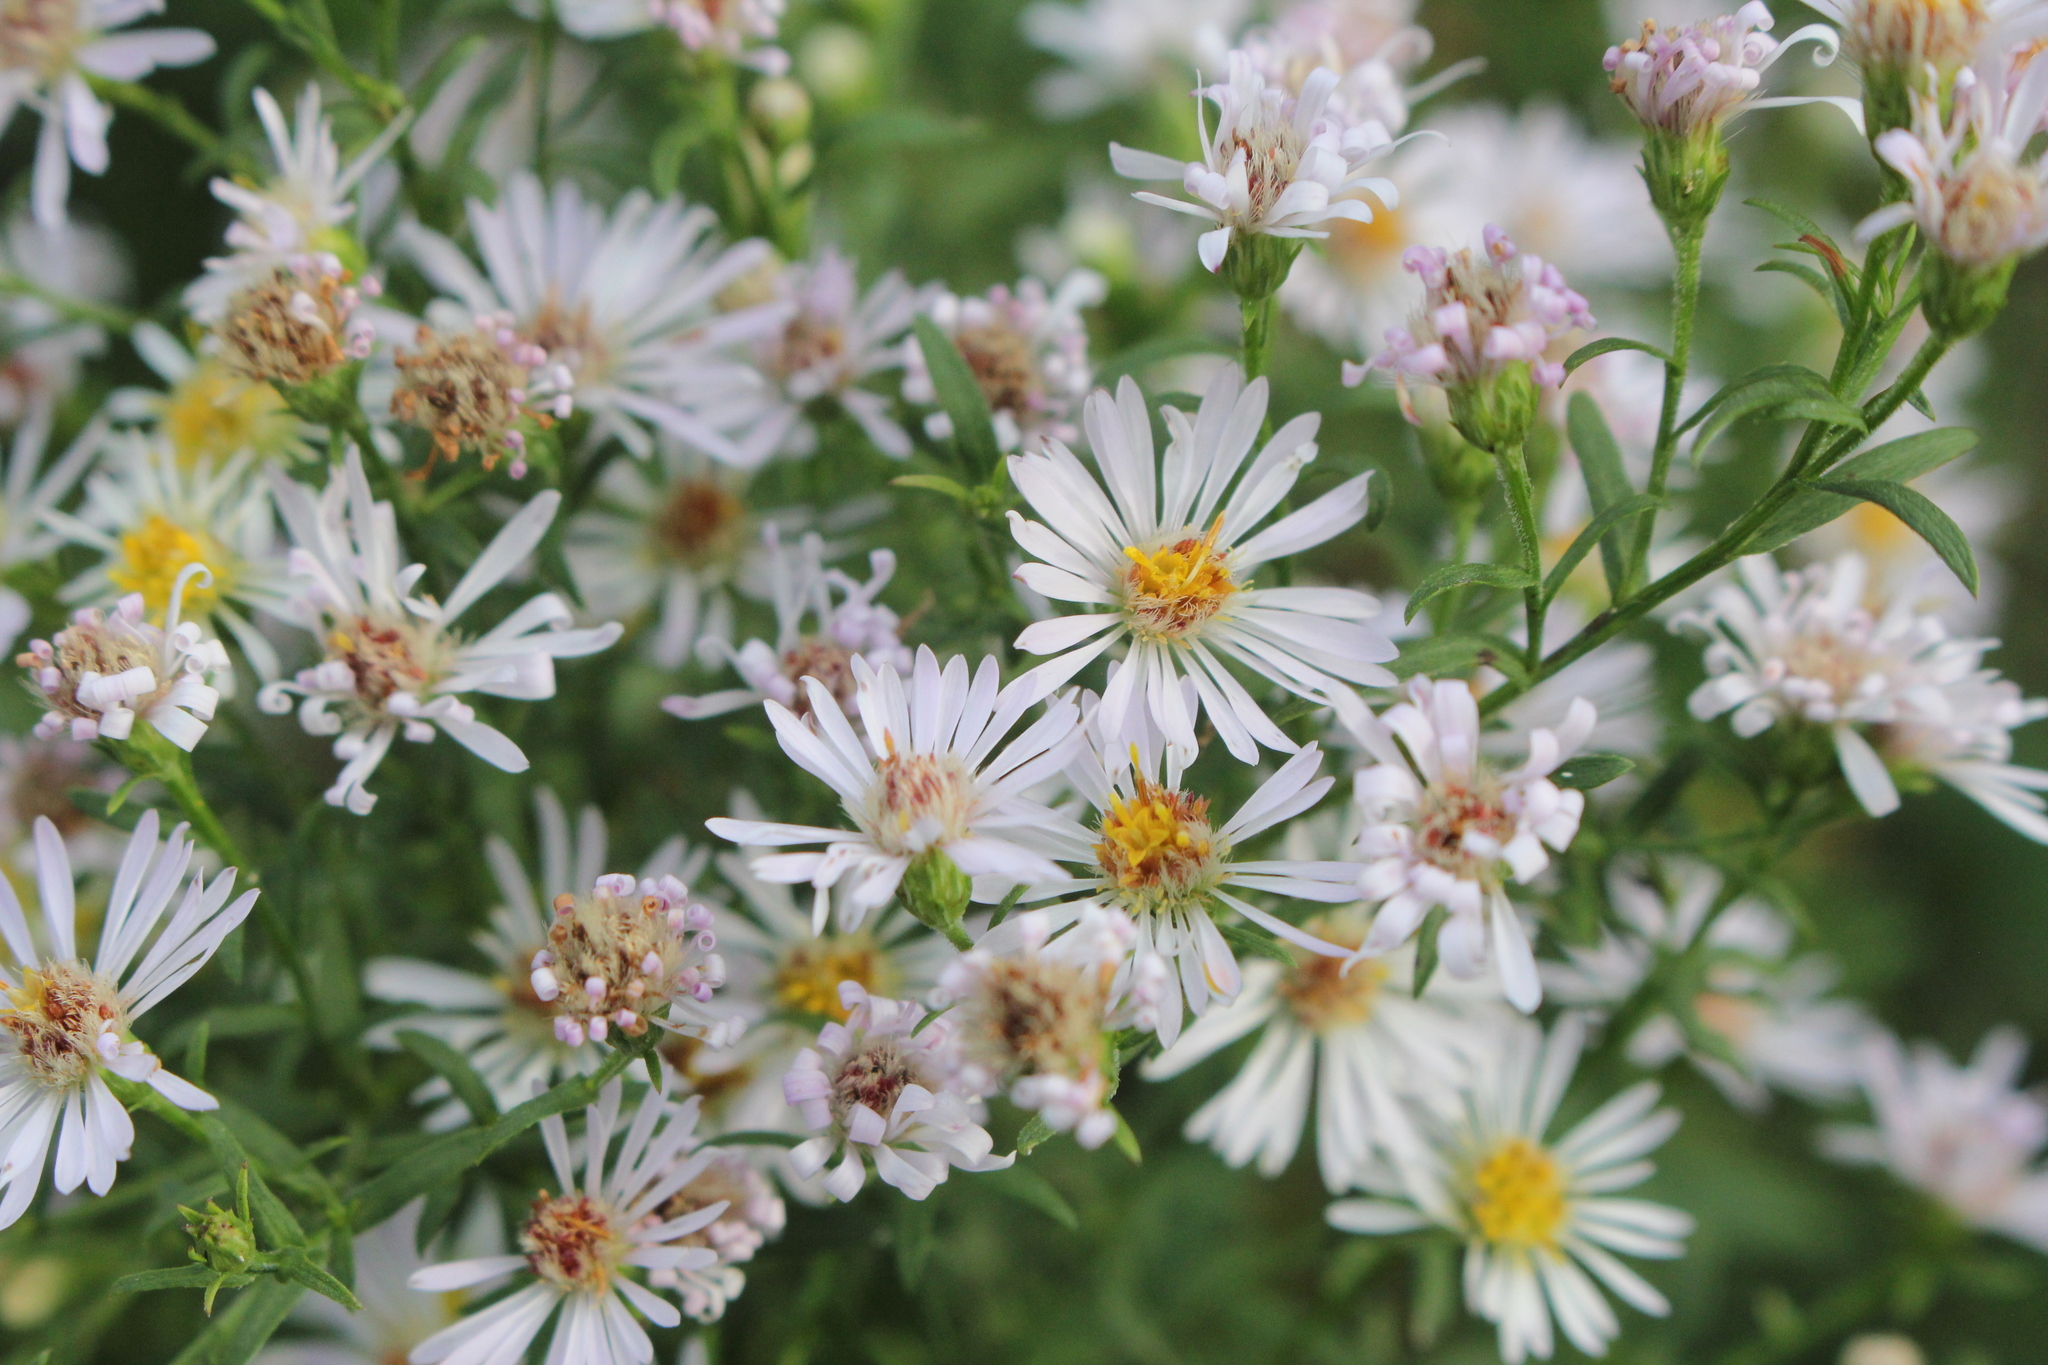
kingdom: Plantae
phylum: Tracheophyta
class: Magnoliopsida
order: Asterales
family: Asteraceae
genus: Symphyotrichum
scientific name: Symphyotrichum lanceolatum
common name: Panicled aster
